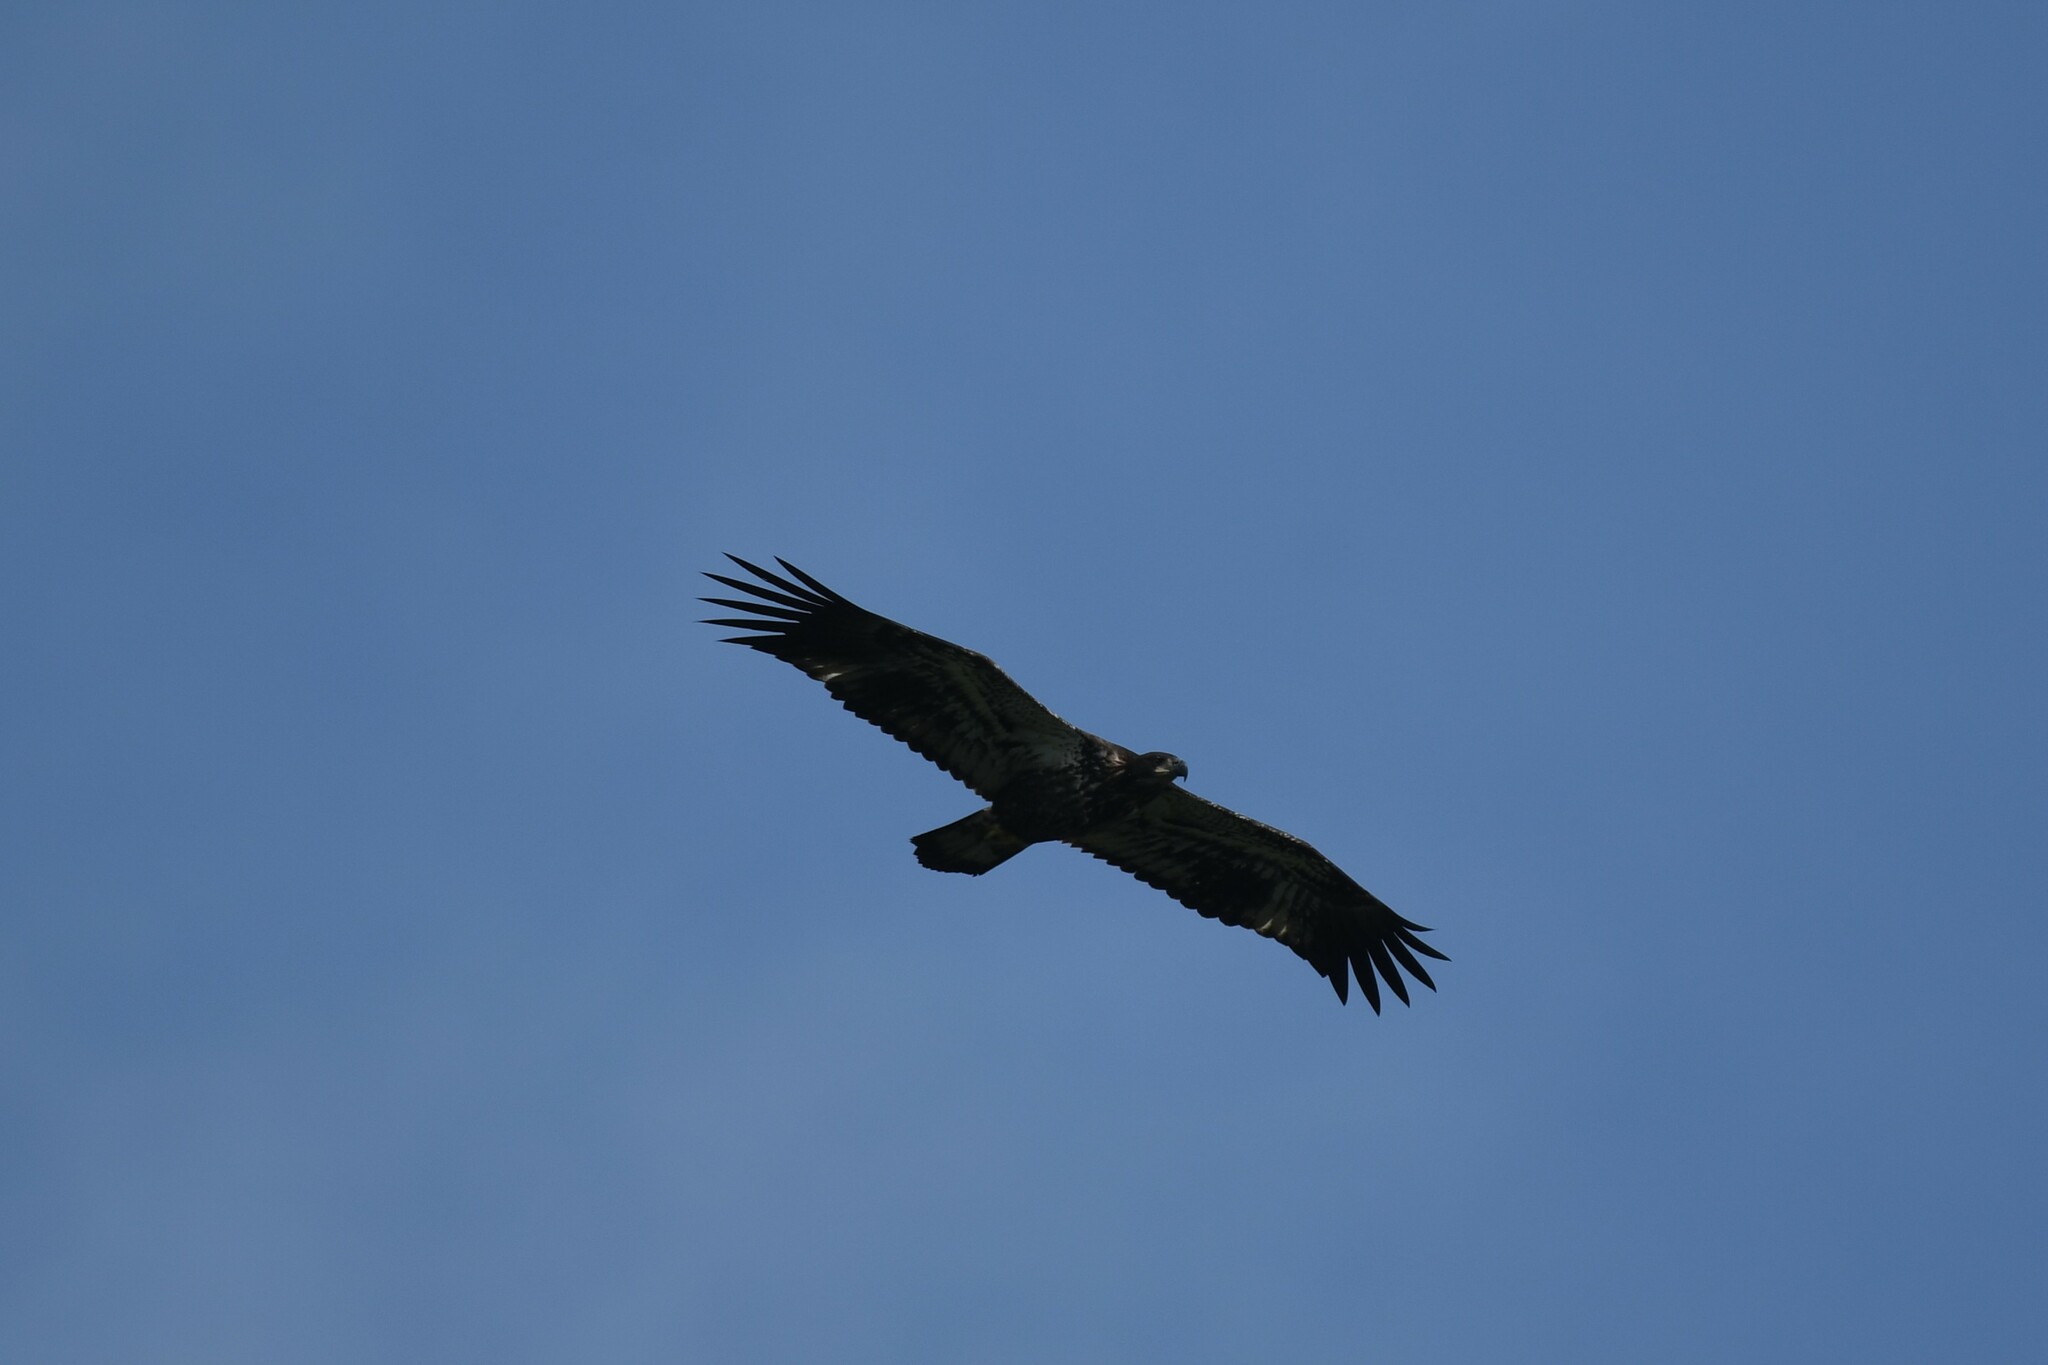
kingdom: Animalia
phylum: Chordata
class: Aves
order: Accipitriformes
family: Accipitridae
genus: Haliaeetus
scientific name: Haliaeetus leucocephalus
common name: Bald eagle
